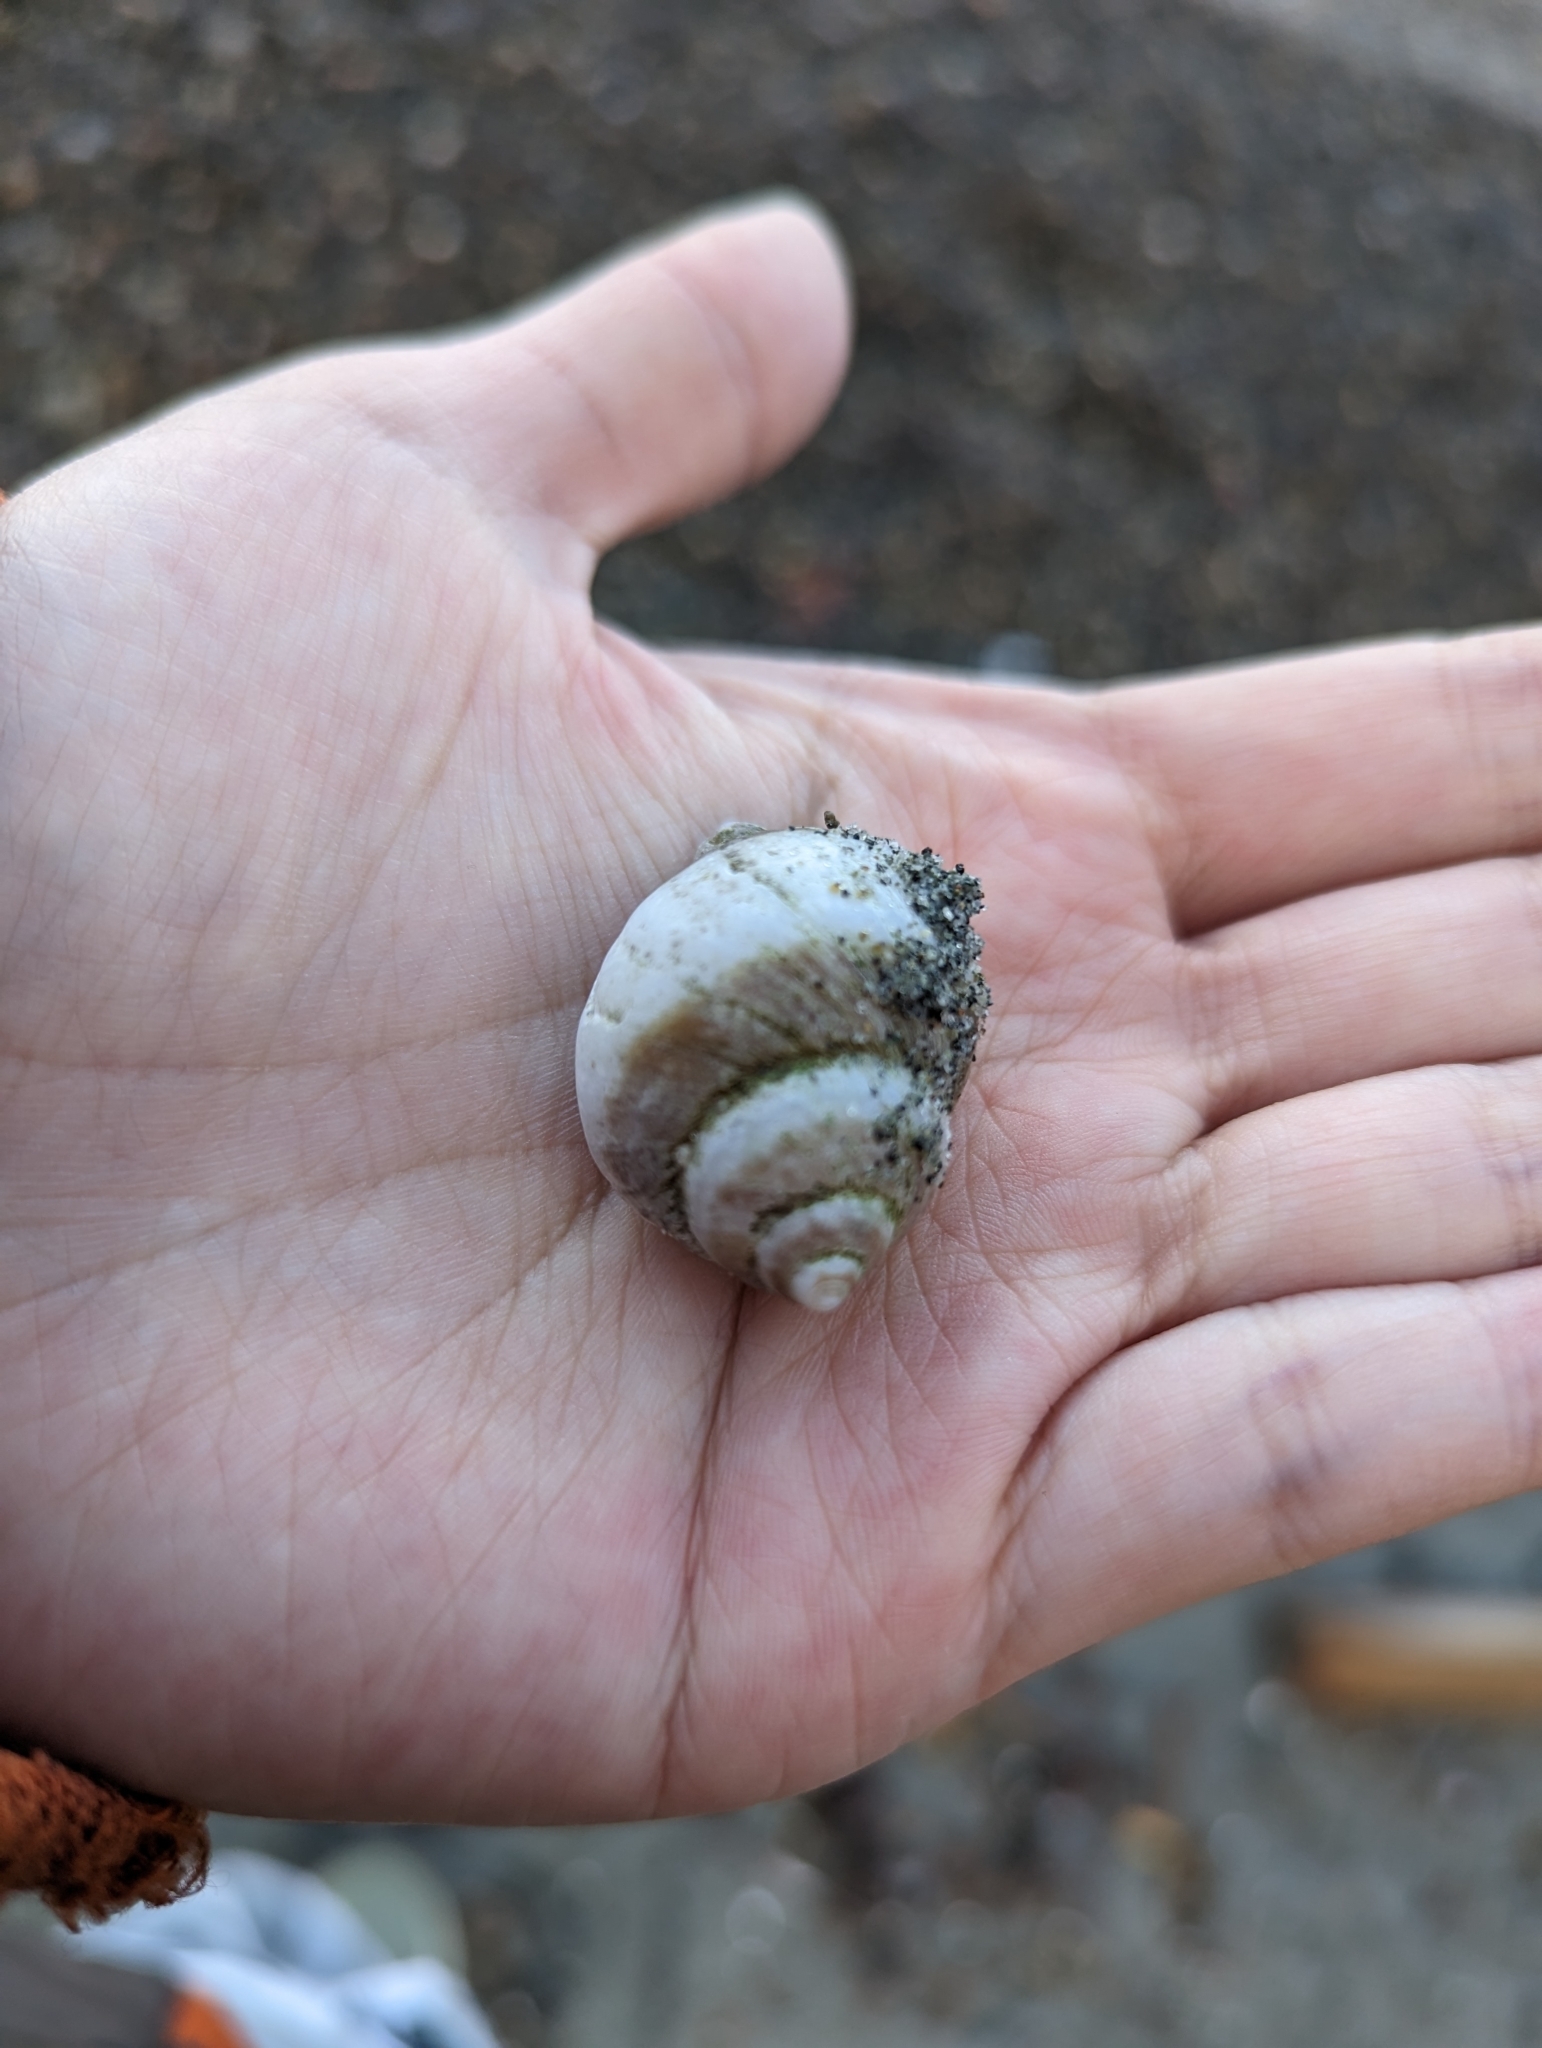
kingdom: Animalia
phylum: Mollusca
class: Gastropoda
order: Neogastropoda
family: Muricidae
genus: Nucella
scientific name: Nucella lamellosa
